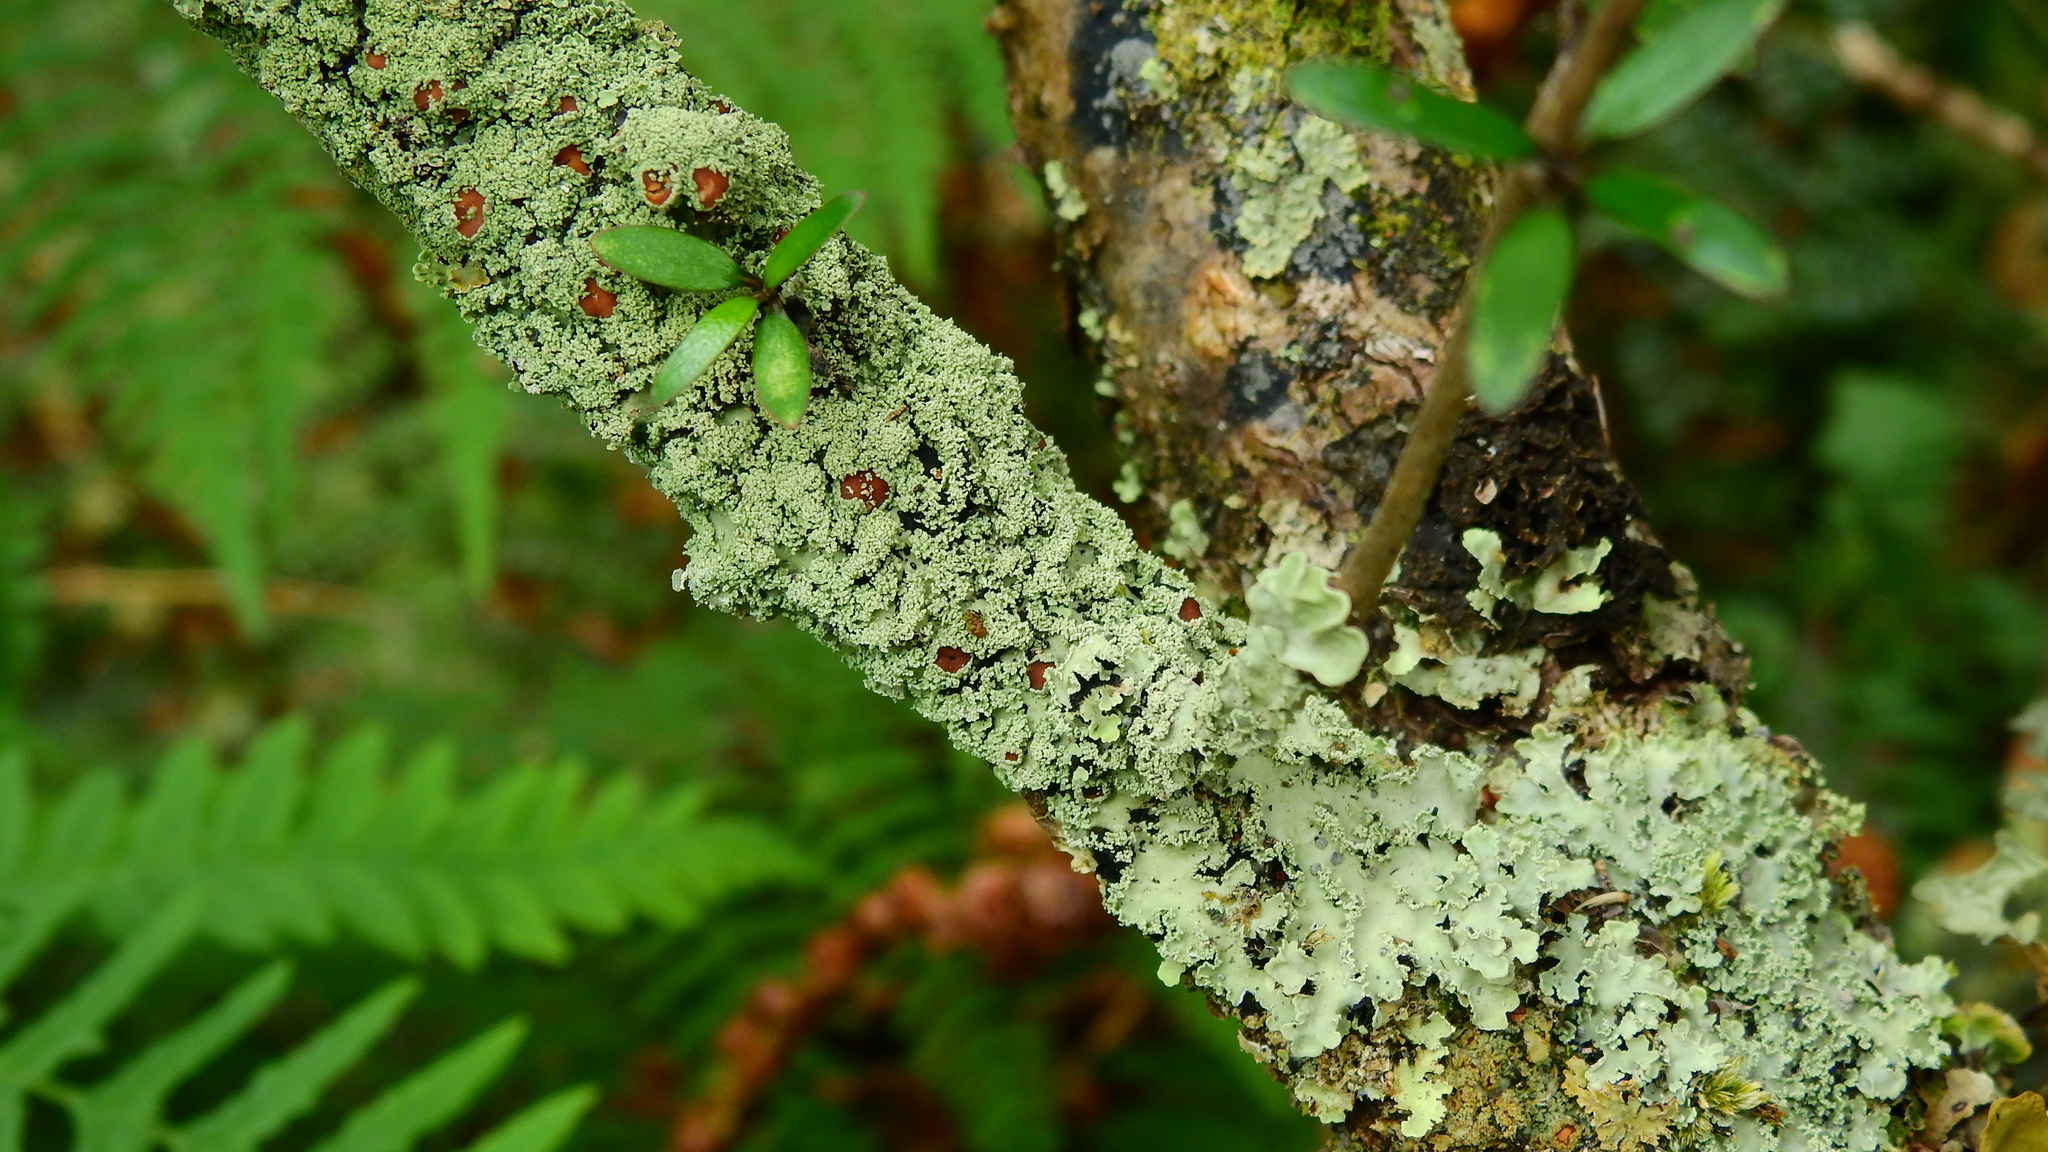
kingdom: Fungi
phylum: Ascomycota
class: Lecanoromycetes
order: Peltigerales
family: Pannariaceae
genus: Pannaria
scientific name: Pannaria leproloma
